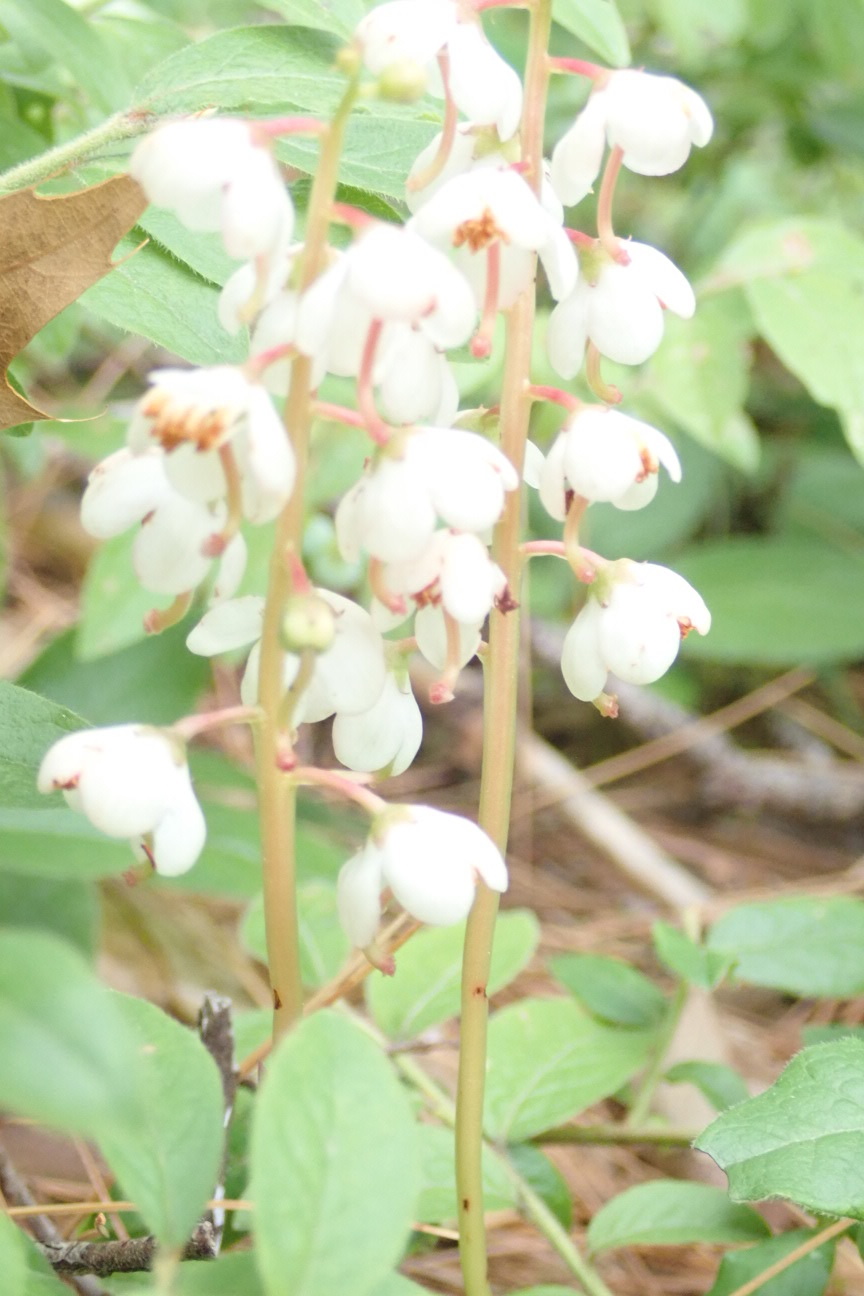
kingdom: Plantae
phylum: Tracheophyta
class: Magnoliopsida
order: Ericales
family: Ericaceae
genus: Pyrola
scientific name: Pyrola elliptica
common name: Shinleaf
